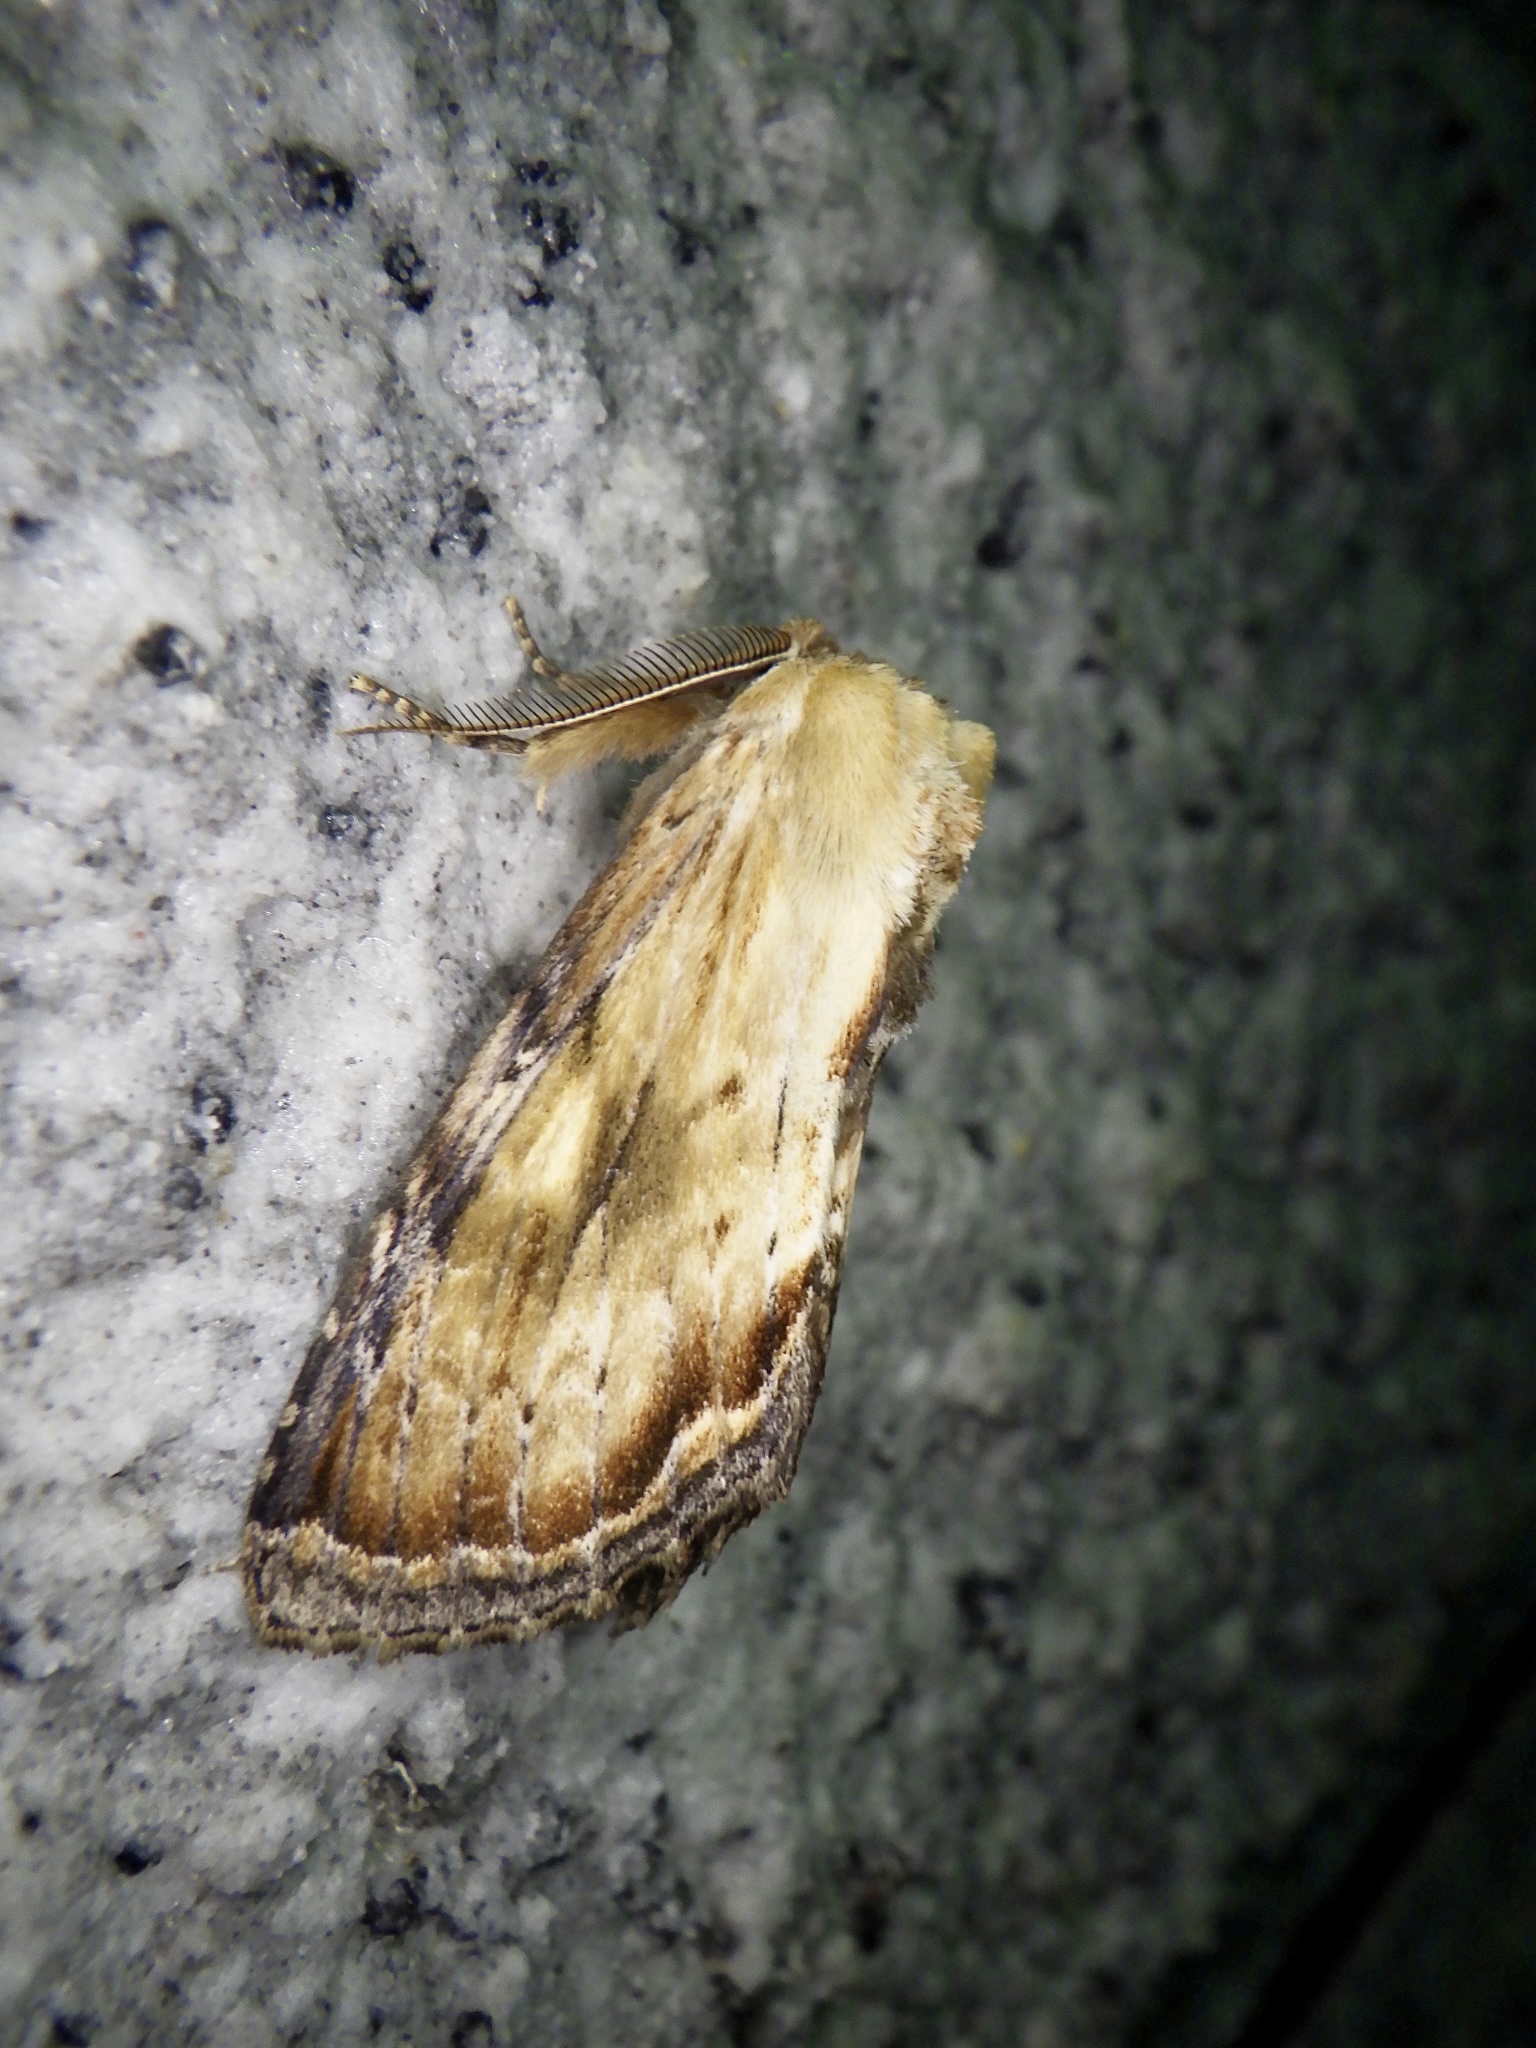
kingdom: Animalia
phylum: Arthropoda
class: Insecta
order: Lepidoptera
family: Notodontidae
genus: Hupodonta
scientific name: Hupodonta corticalis
